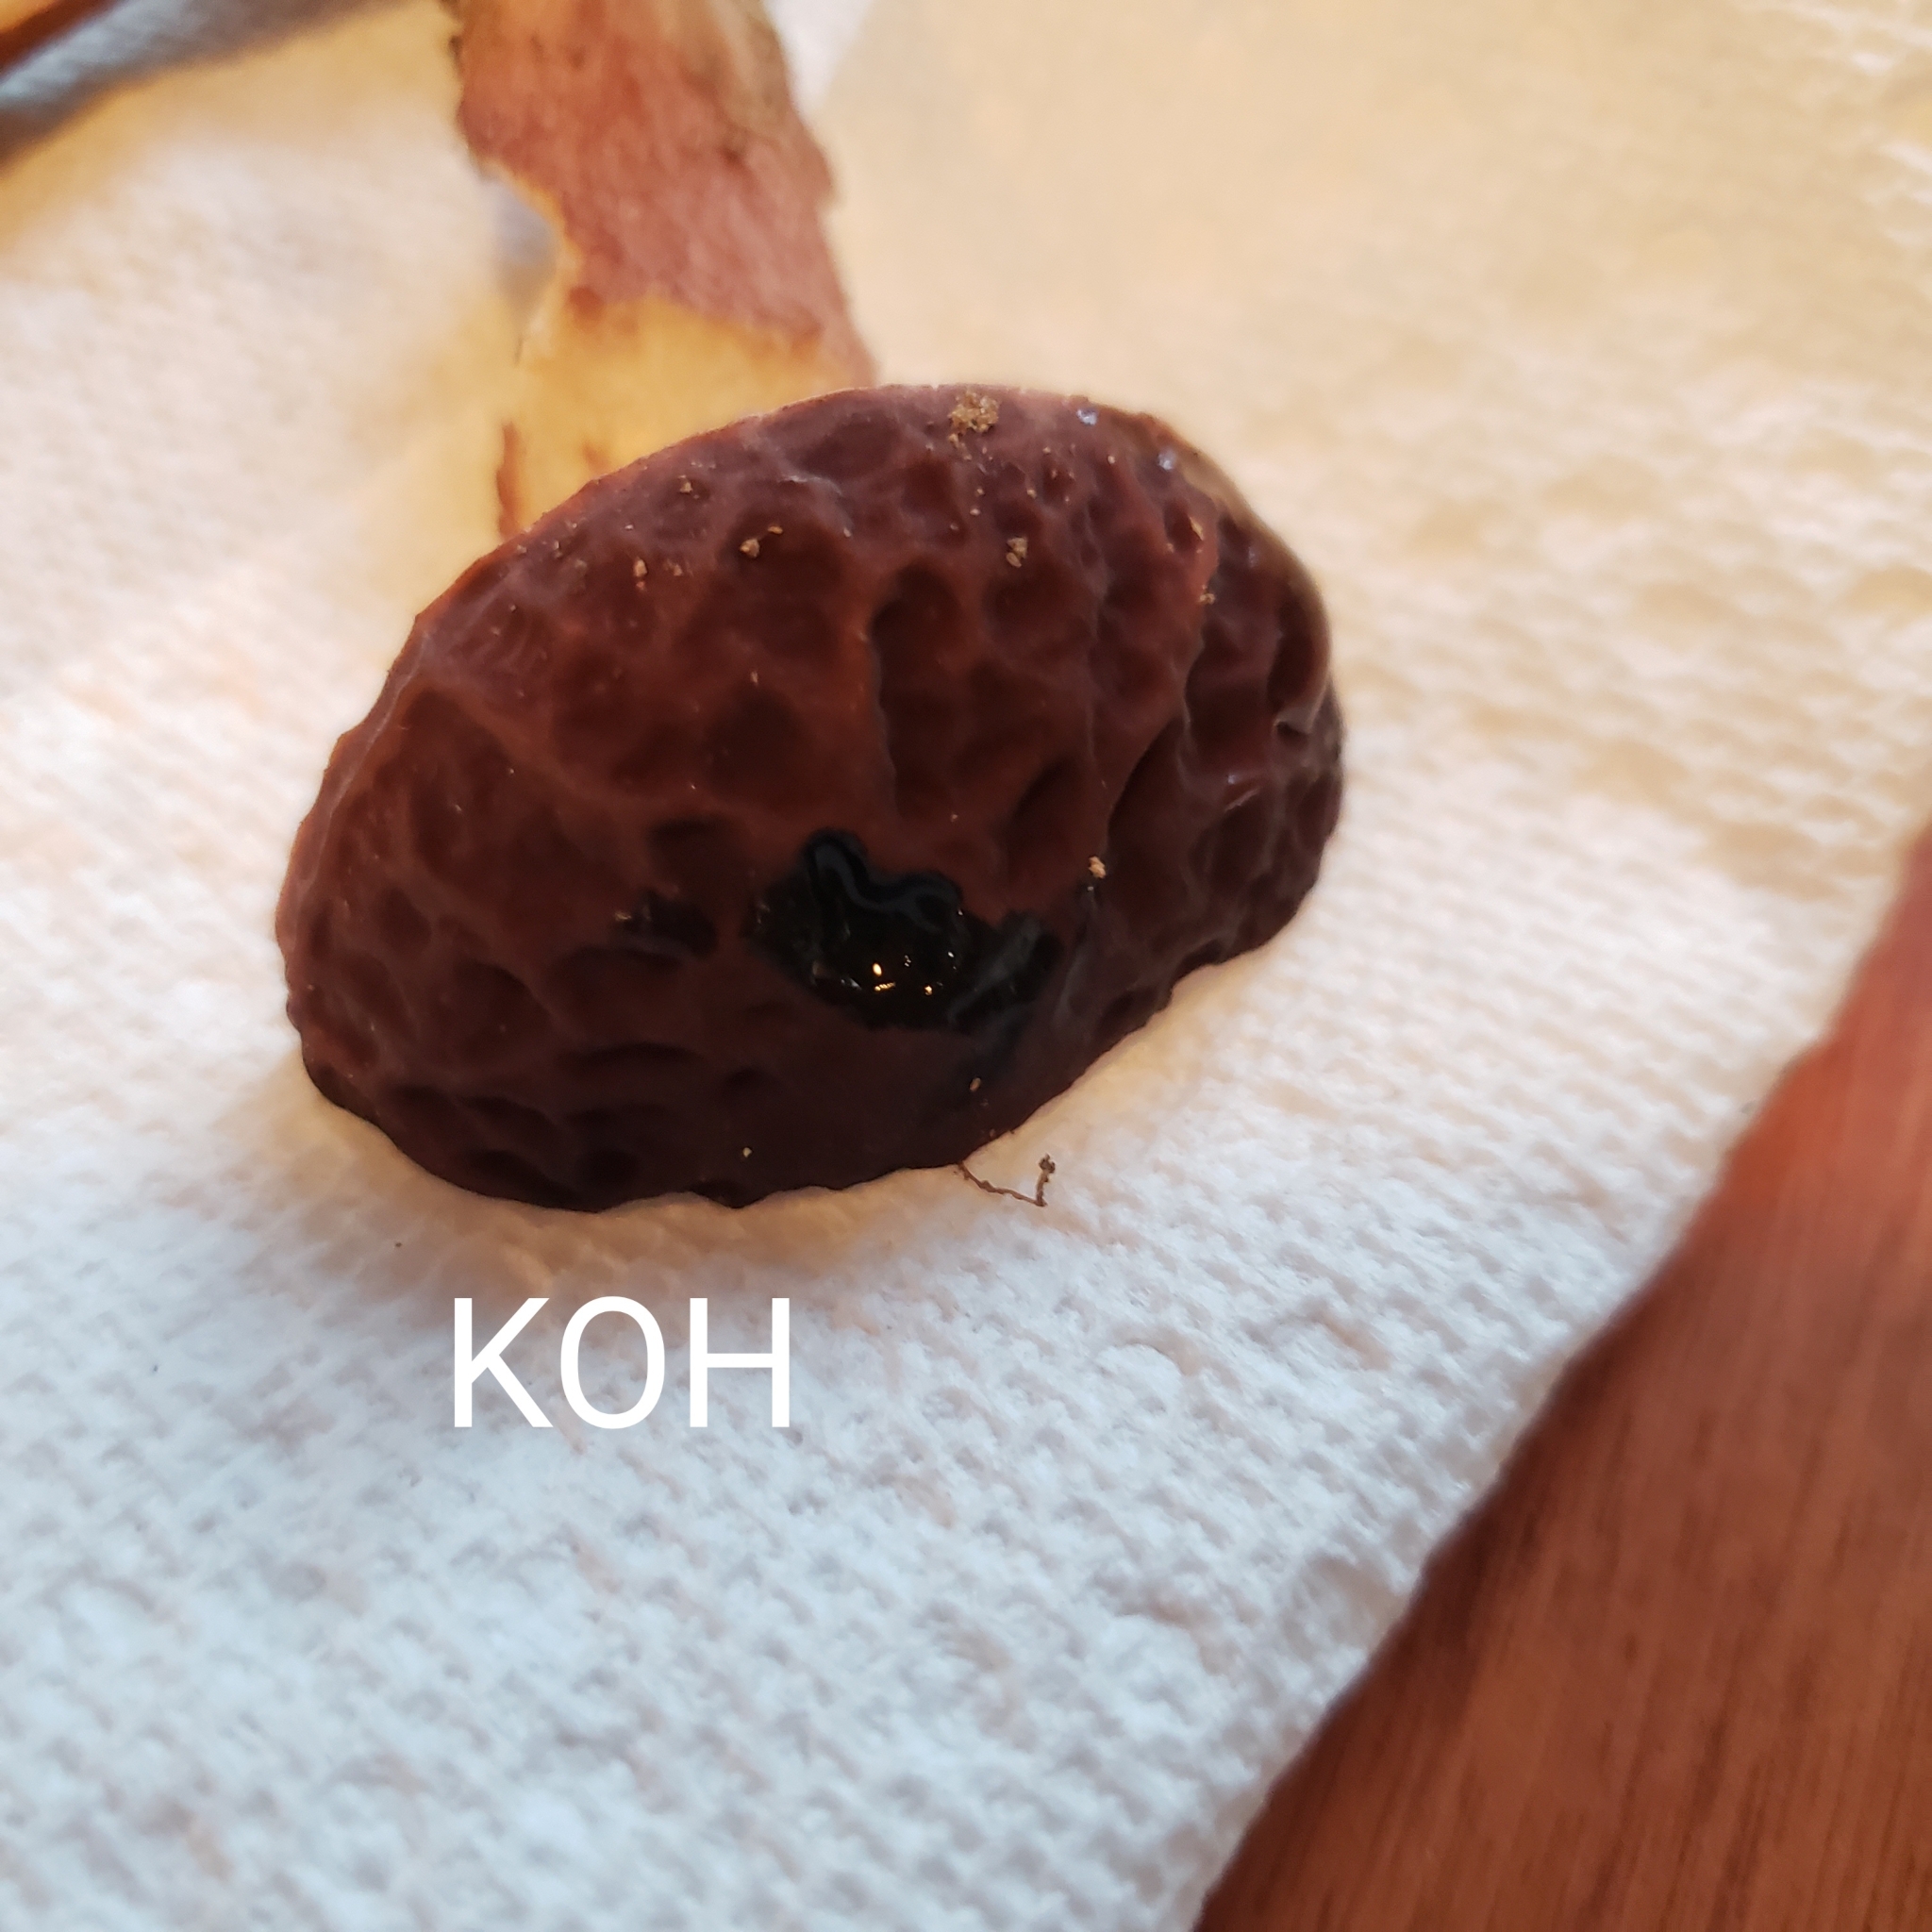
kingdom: Fungi
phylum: Basidiomycota
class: Agaricomycetes
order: Boletales
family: Boletaceae
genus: Xanthoconium
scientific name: Xanthoconium separans
